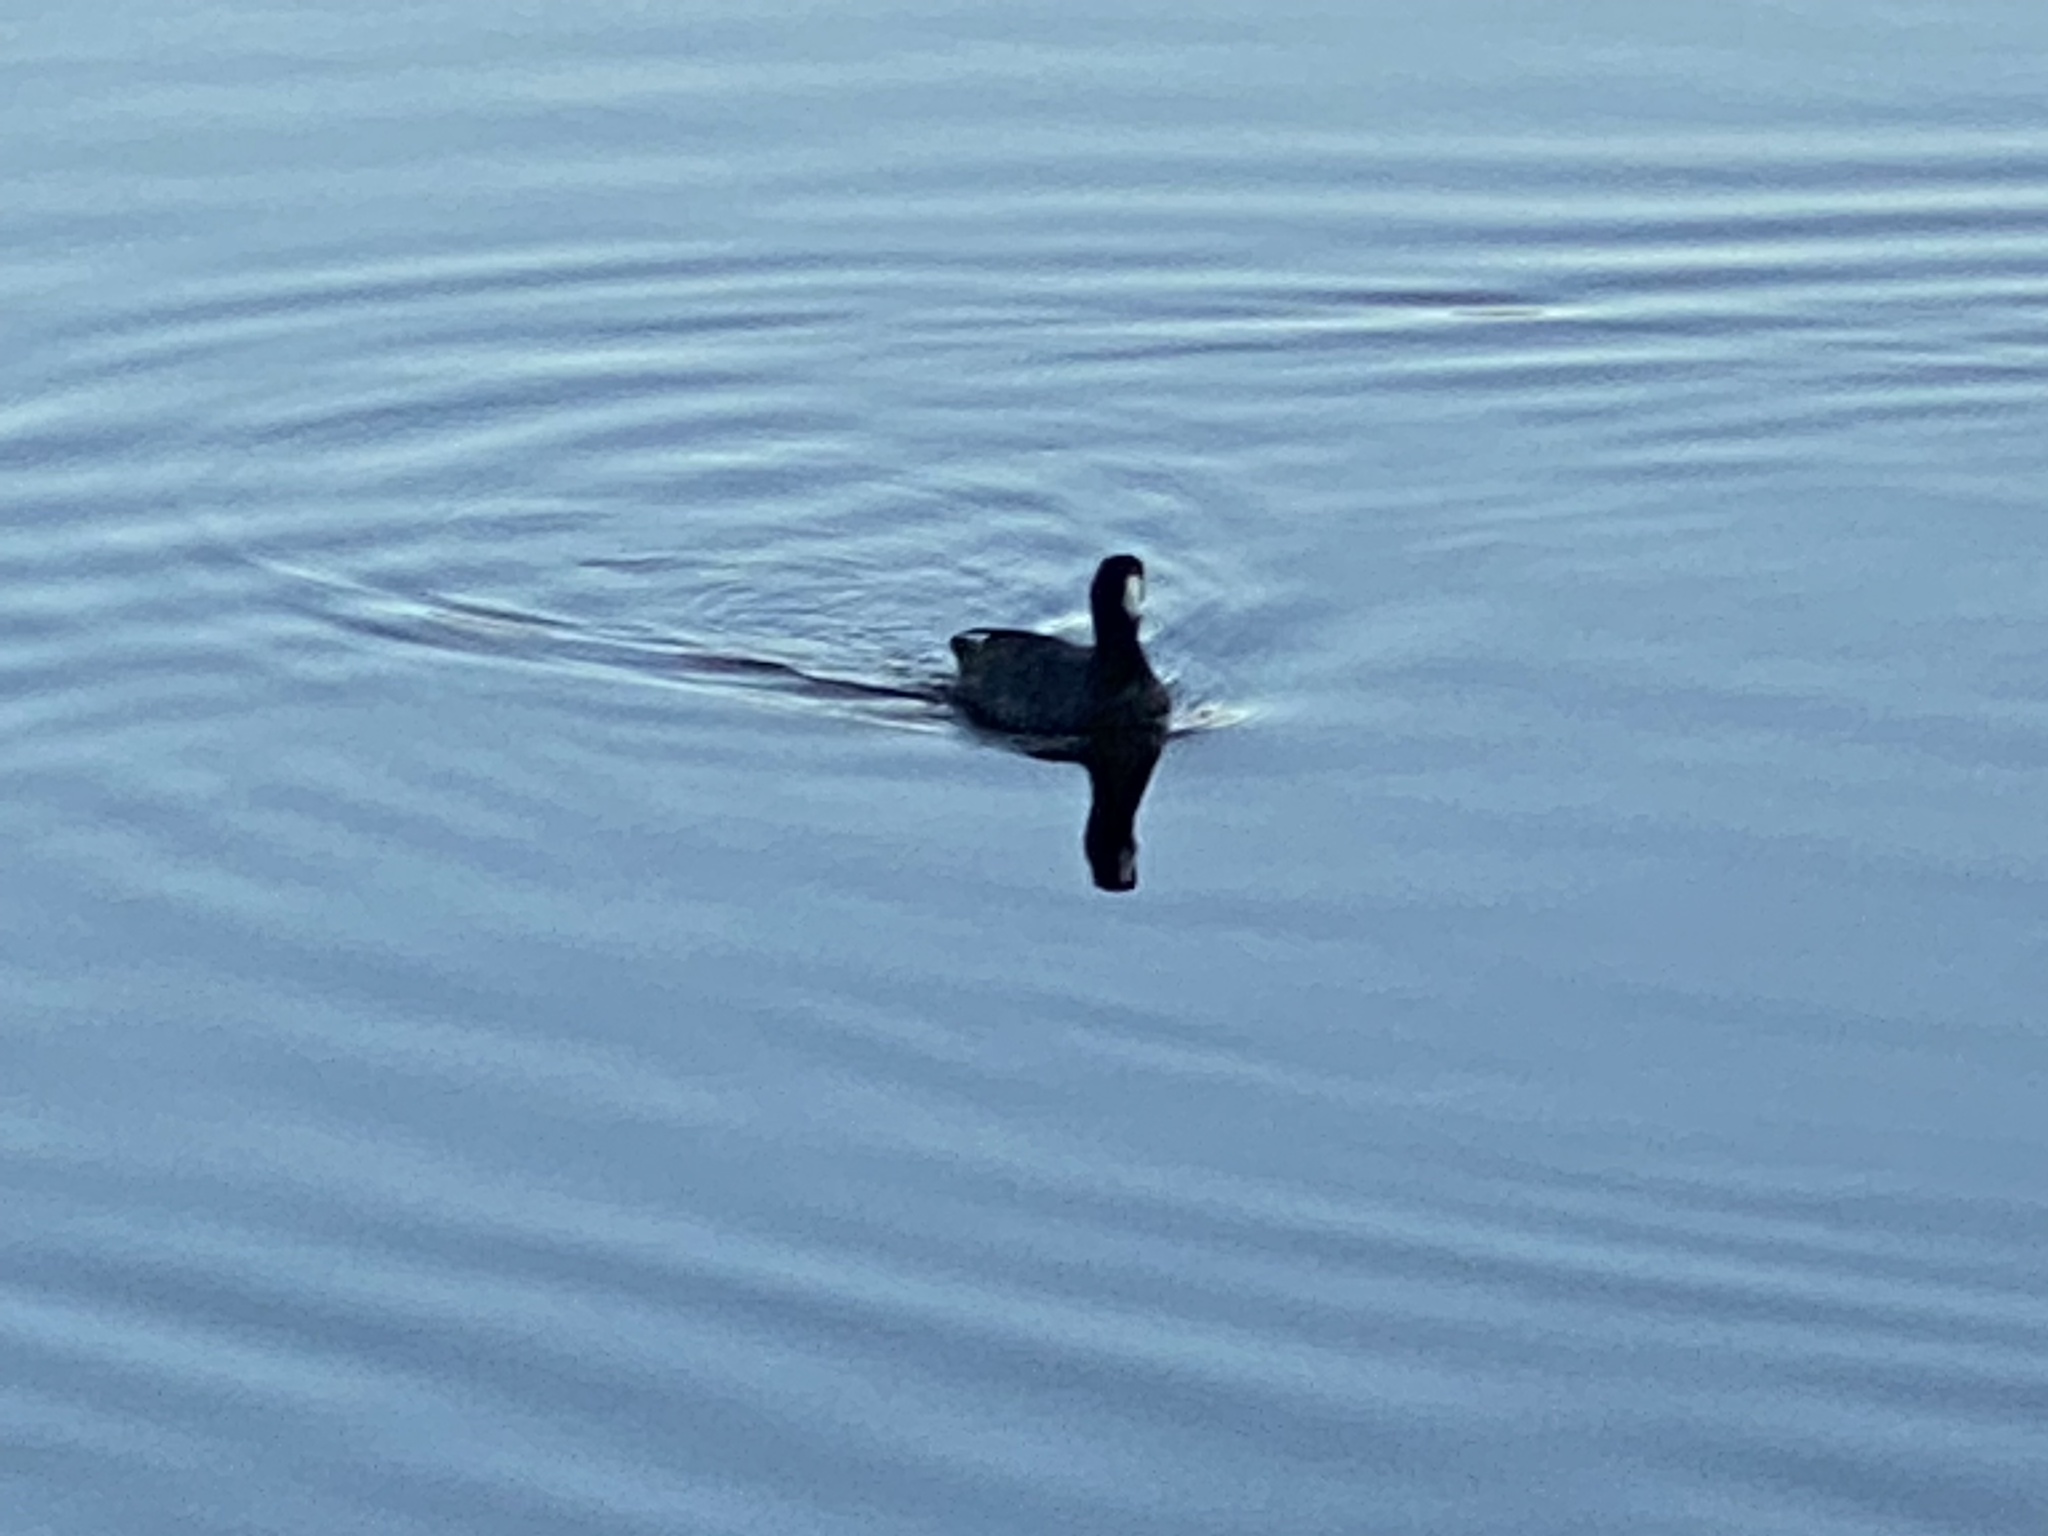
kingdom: Animalia
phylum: Chordata
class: Aves
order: Gruiformes
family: Rallidae
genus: Fulica
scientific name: Fulica americana
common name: American coot
